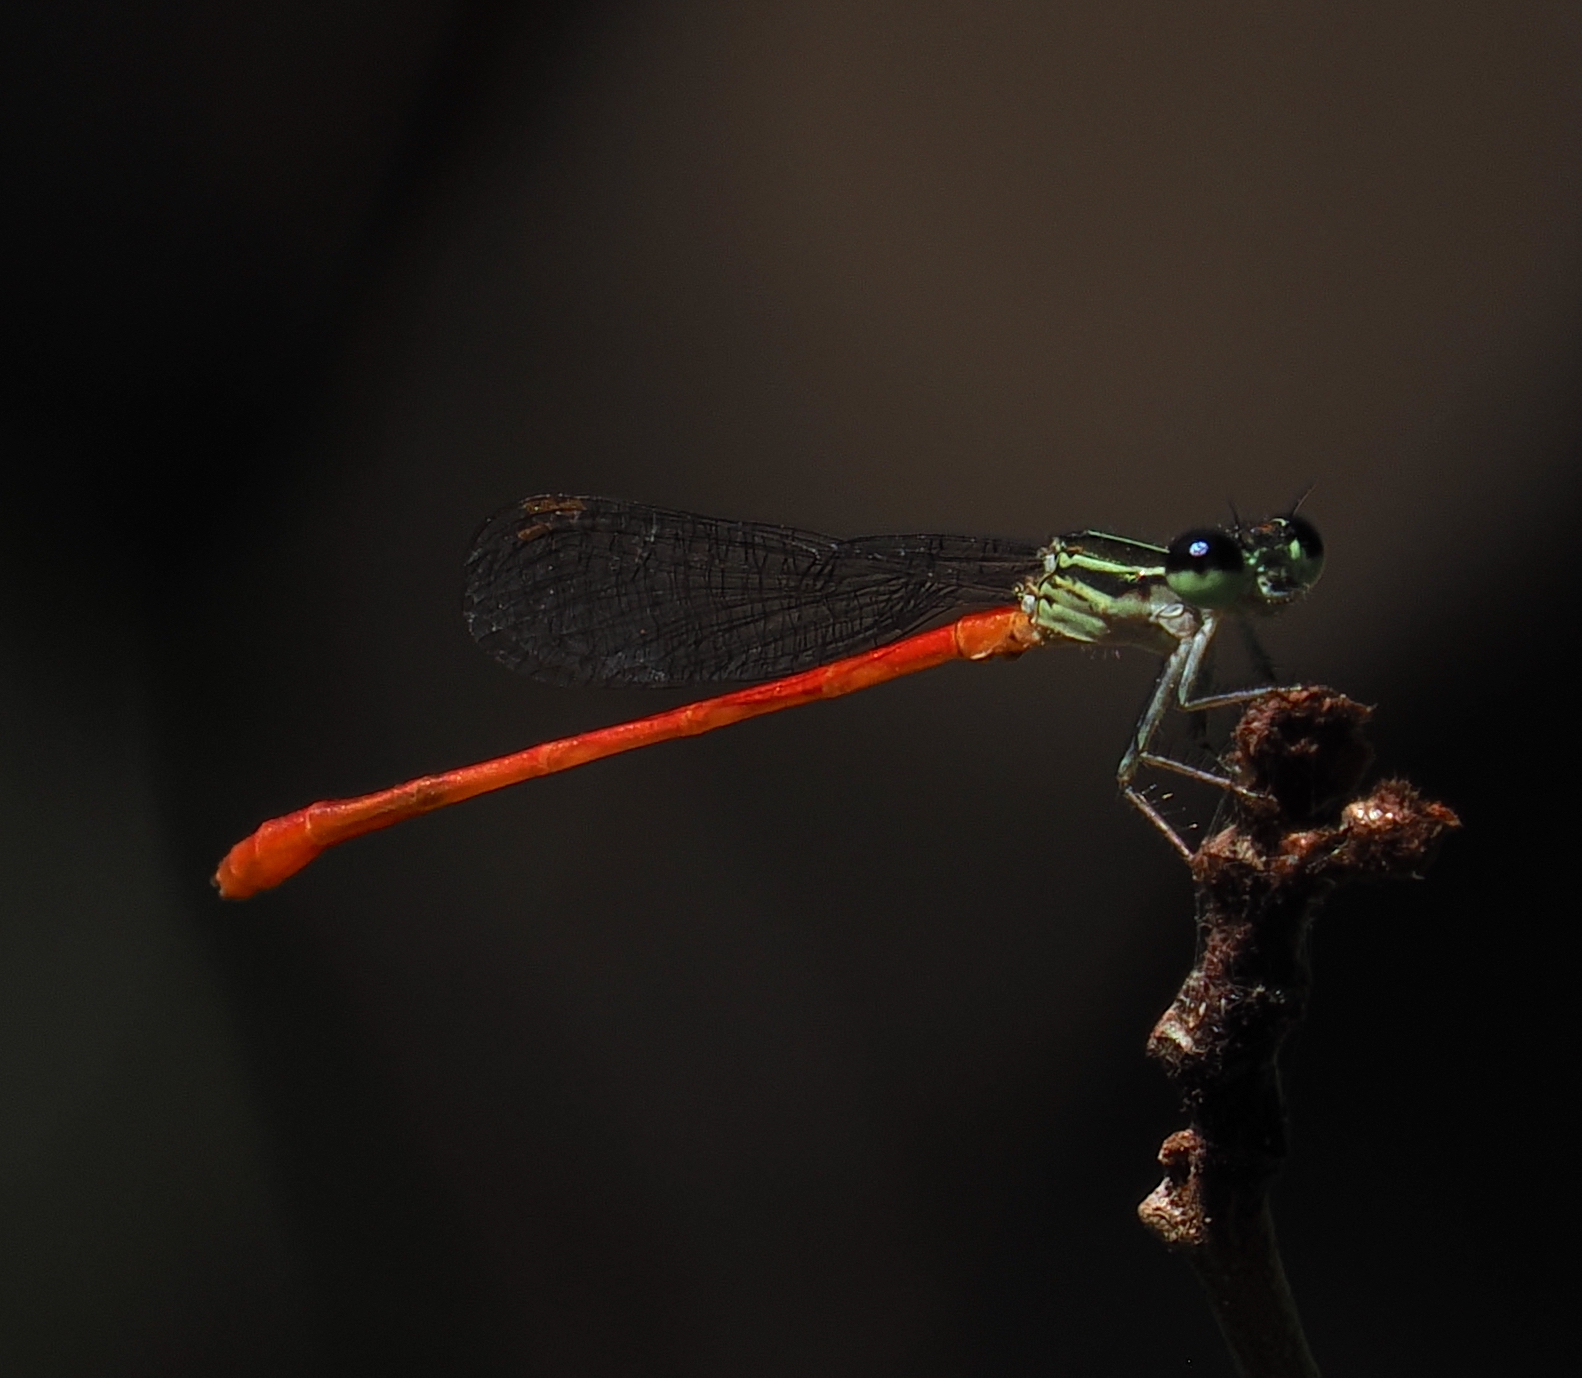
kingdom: Animalia
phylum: Arthropoda
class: Insecta
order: Odonata
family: Coenagrionidae
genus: Telebasis
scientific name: Telebasis filiola
